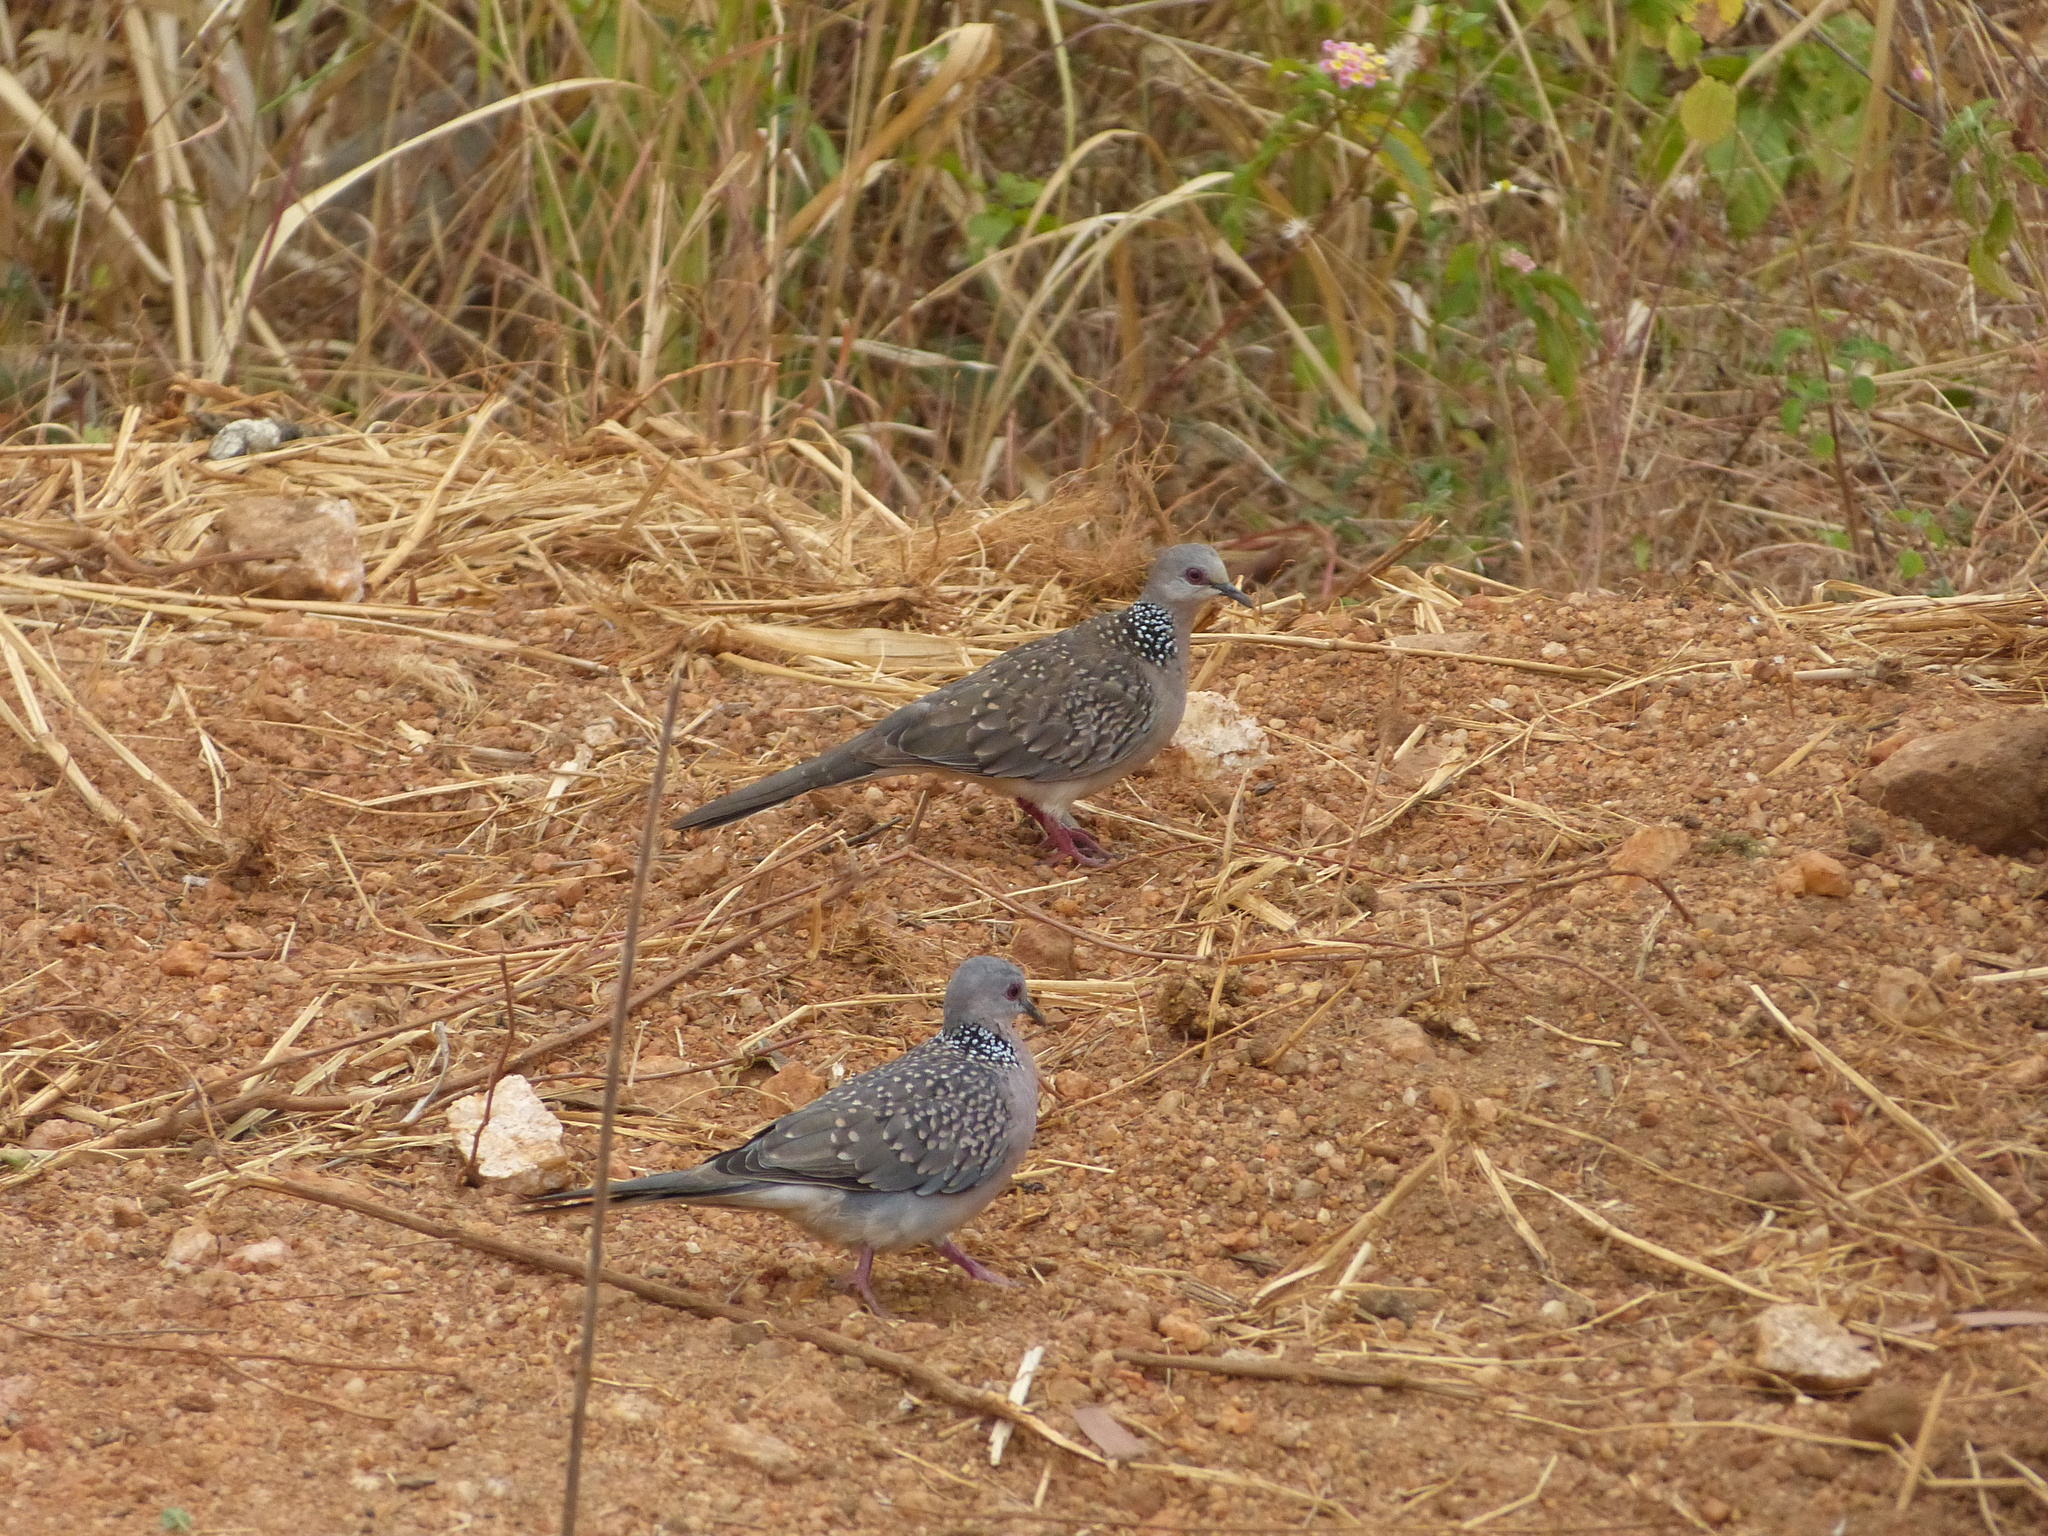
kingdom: Animalia
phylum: Chordata
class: Aves
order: Columbiformes
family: Columbidae
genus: Spilopelia
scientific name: Spilopelia chinensis
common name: Spotted dove
